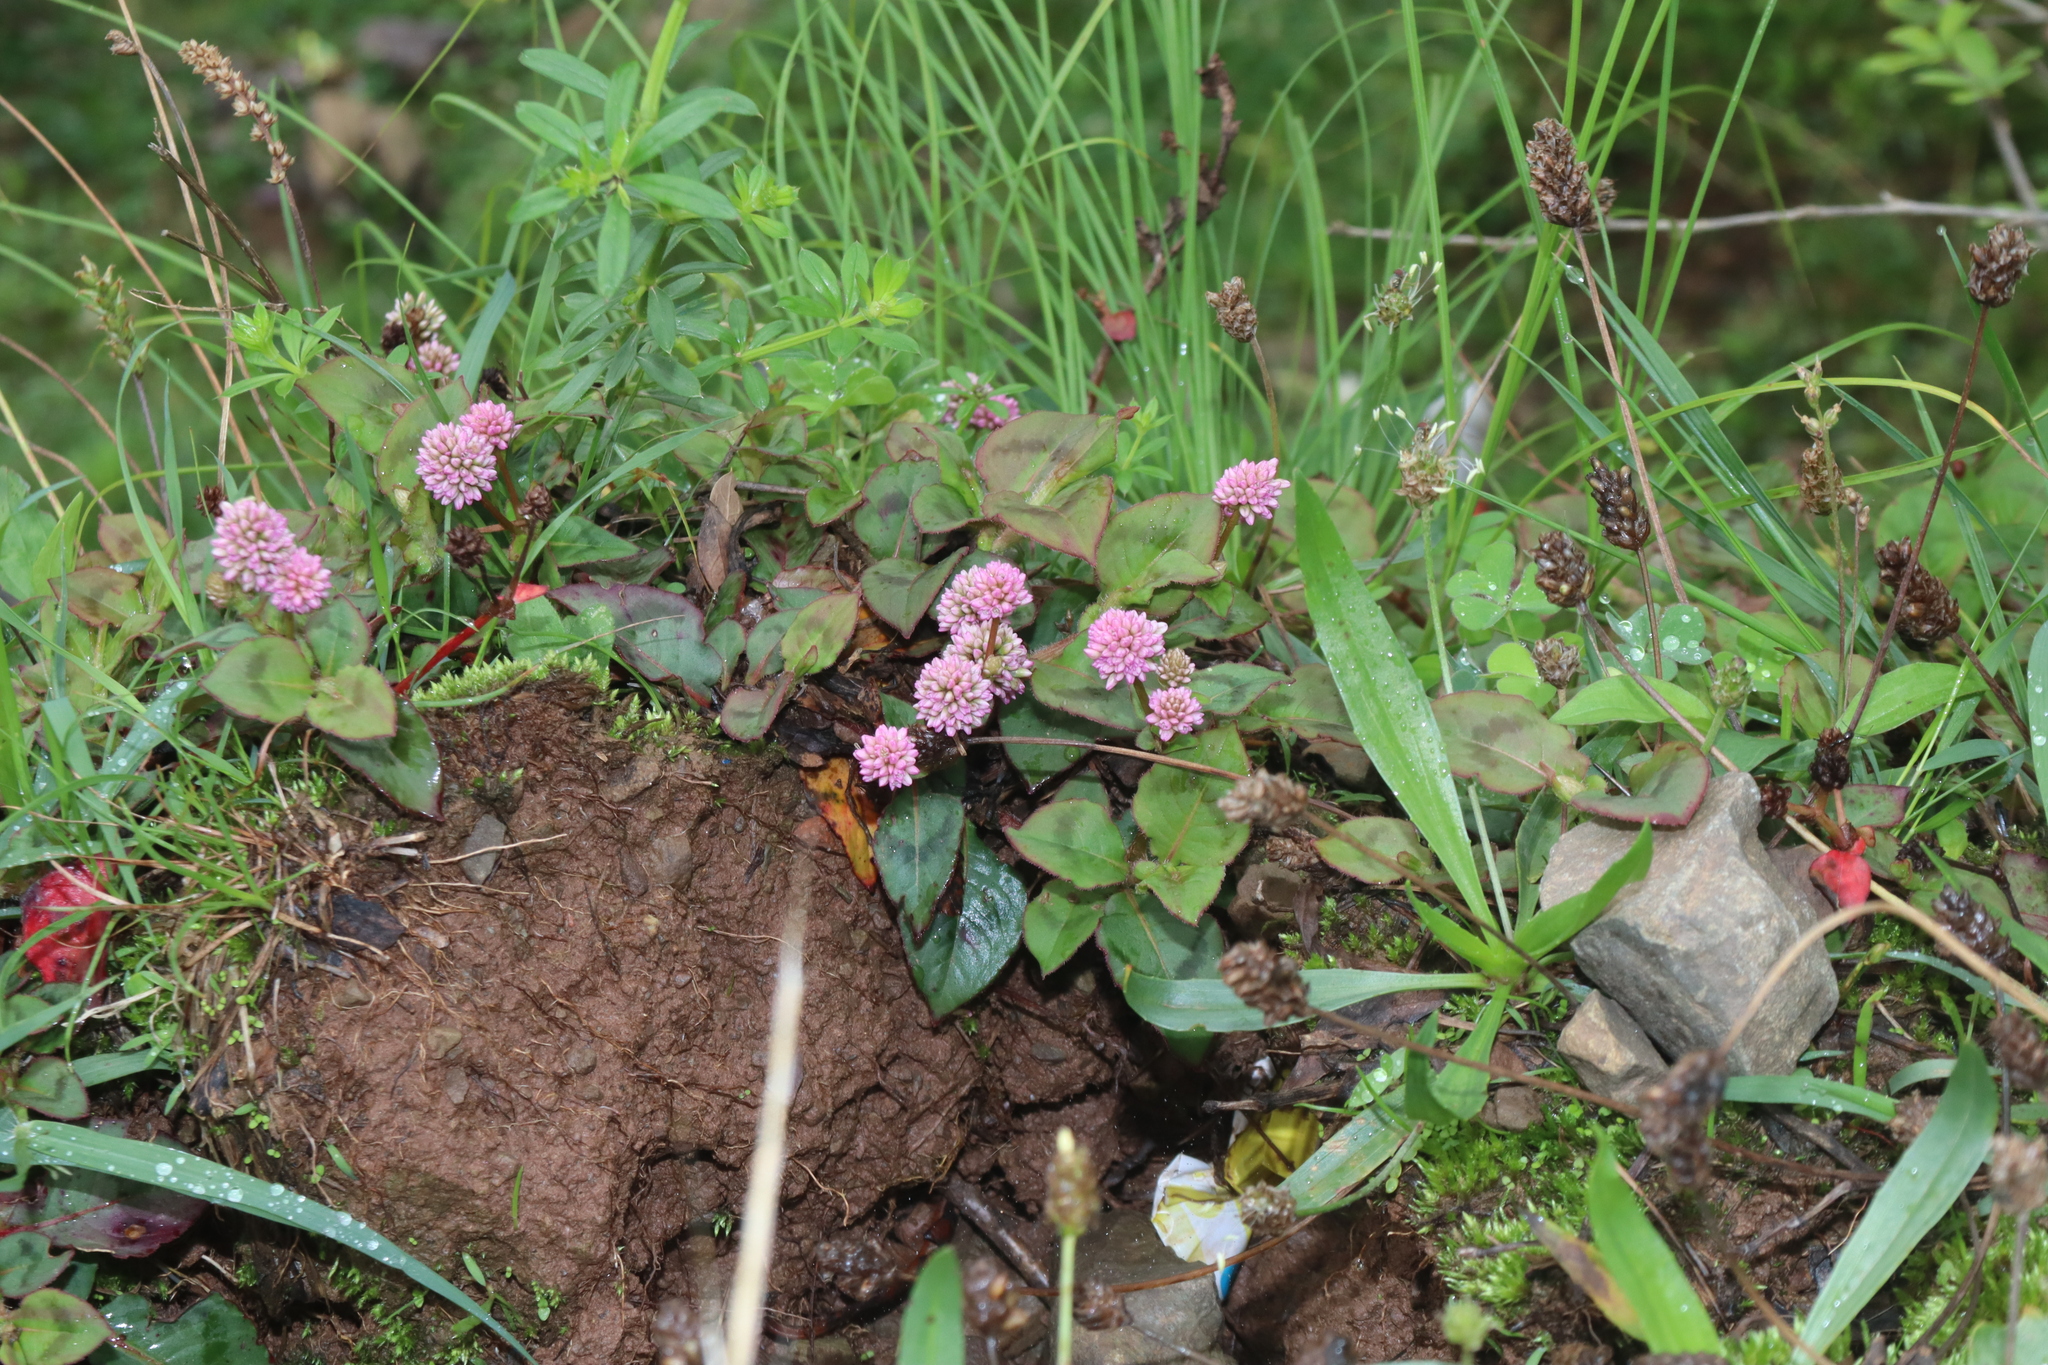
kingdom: Plantae
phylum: Tracheophyta
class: Magnoliopsida
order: Caryophyllales
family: Polygonaceae
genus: Persicaria
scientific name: Persicaria capitata
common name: Pinkhead smartweed
